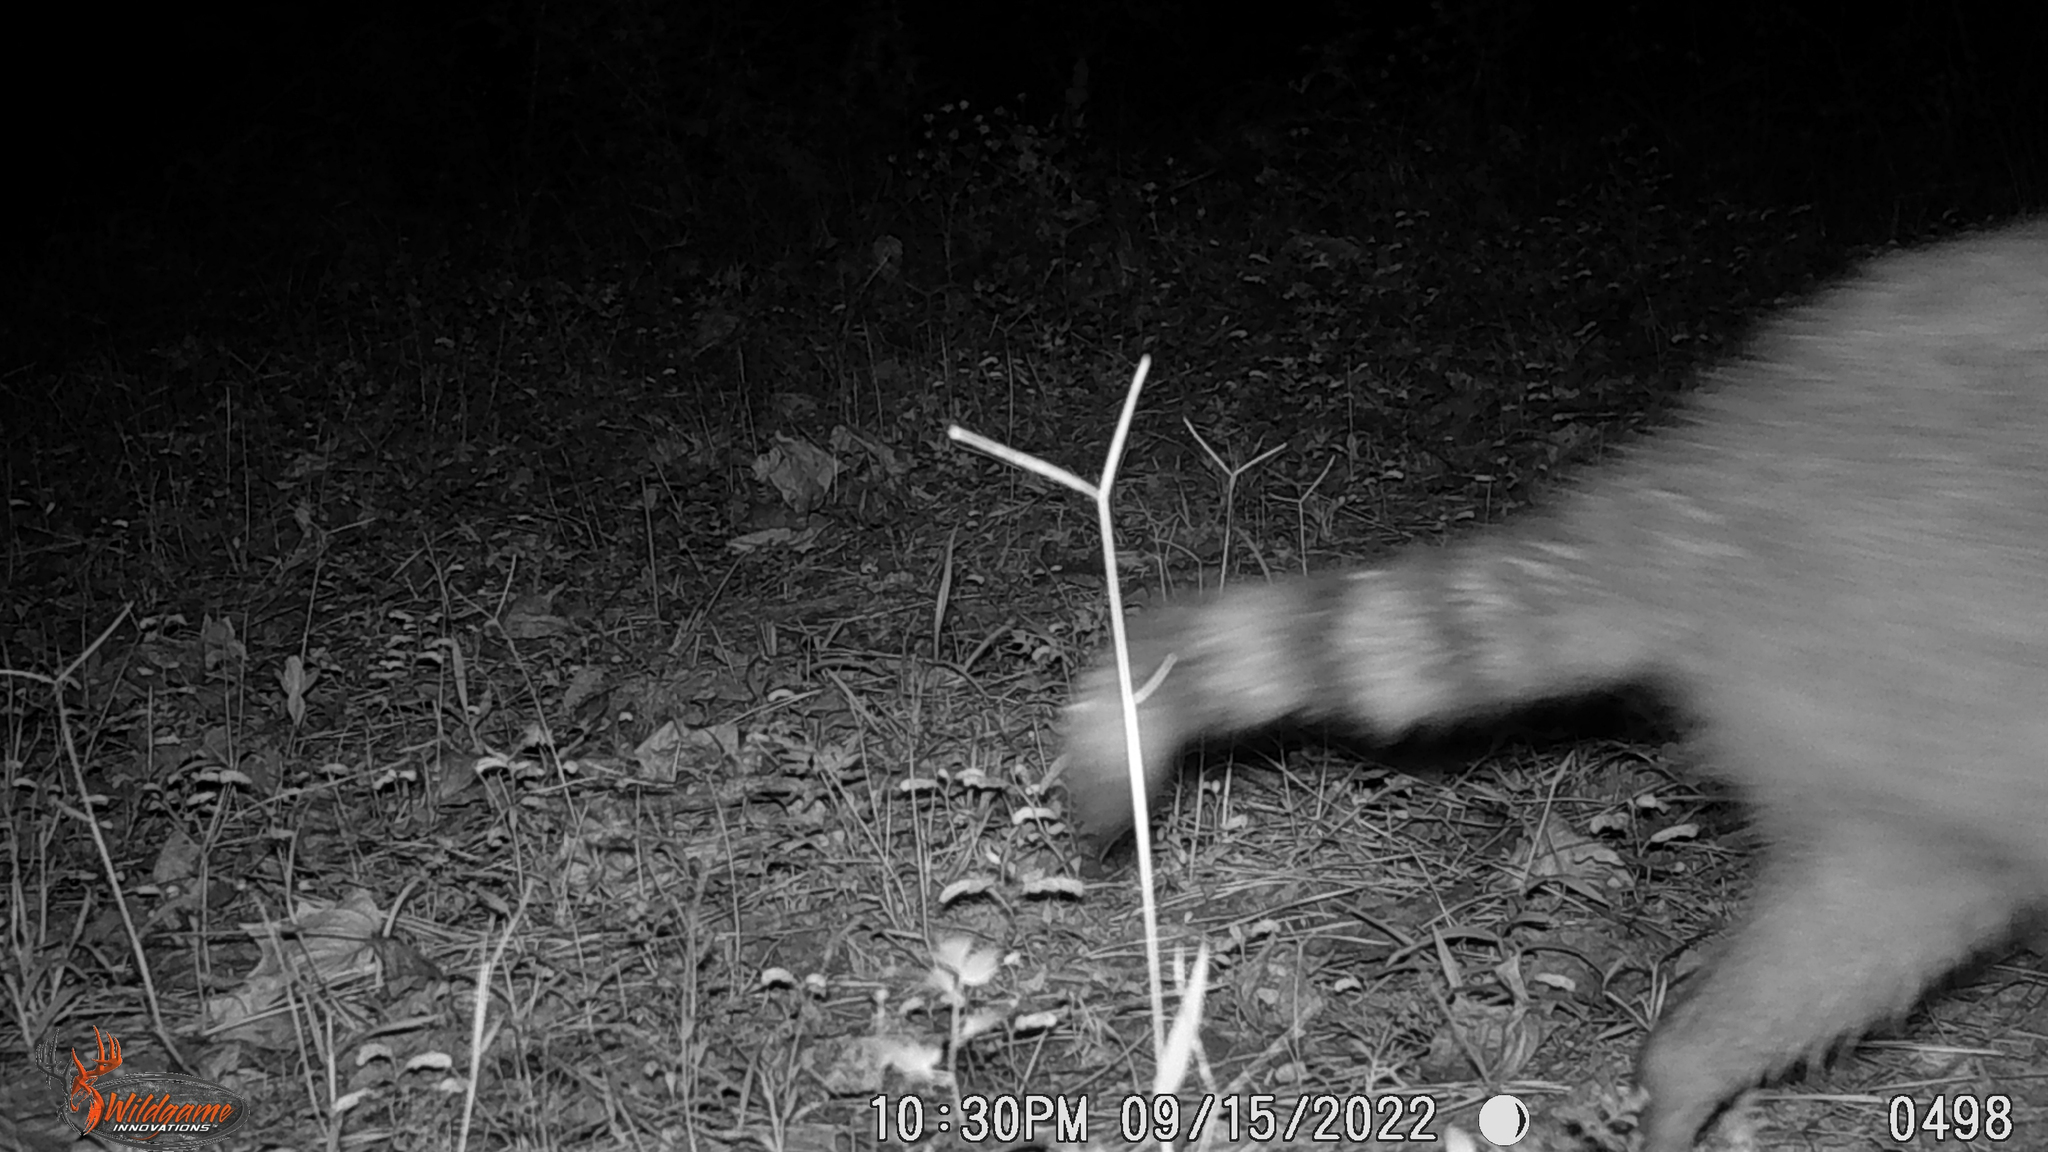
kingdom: Animalia
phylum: Chordata
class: Mammalia
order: Carnivora
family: Procyonidae
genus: Procyon
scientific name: Procyon lotor
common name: Raccoon
